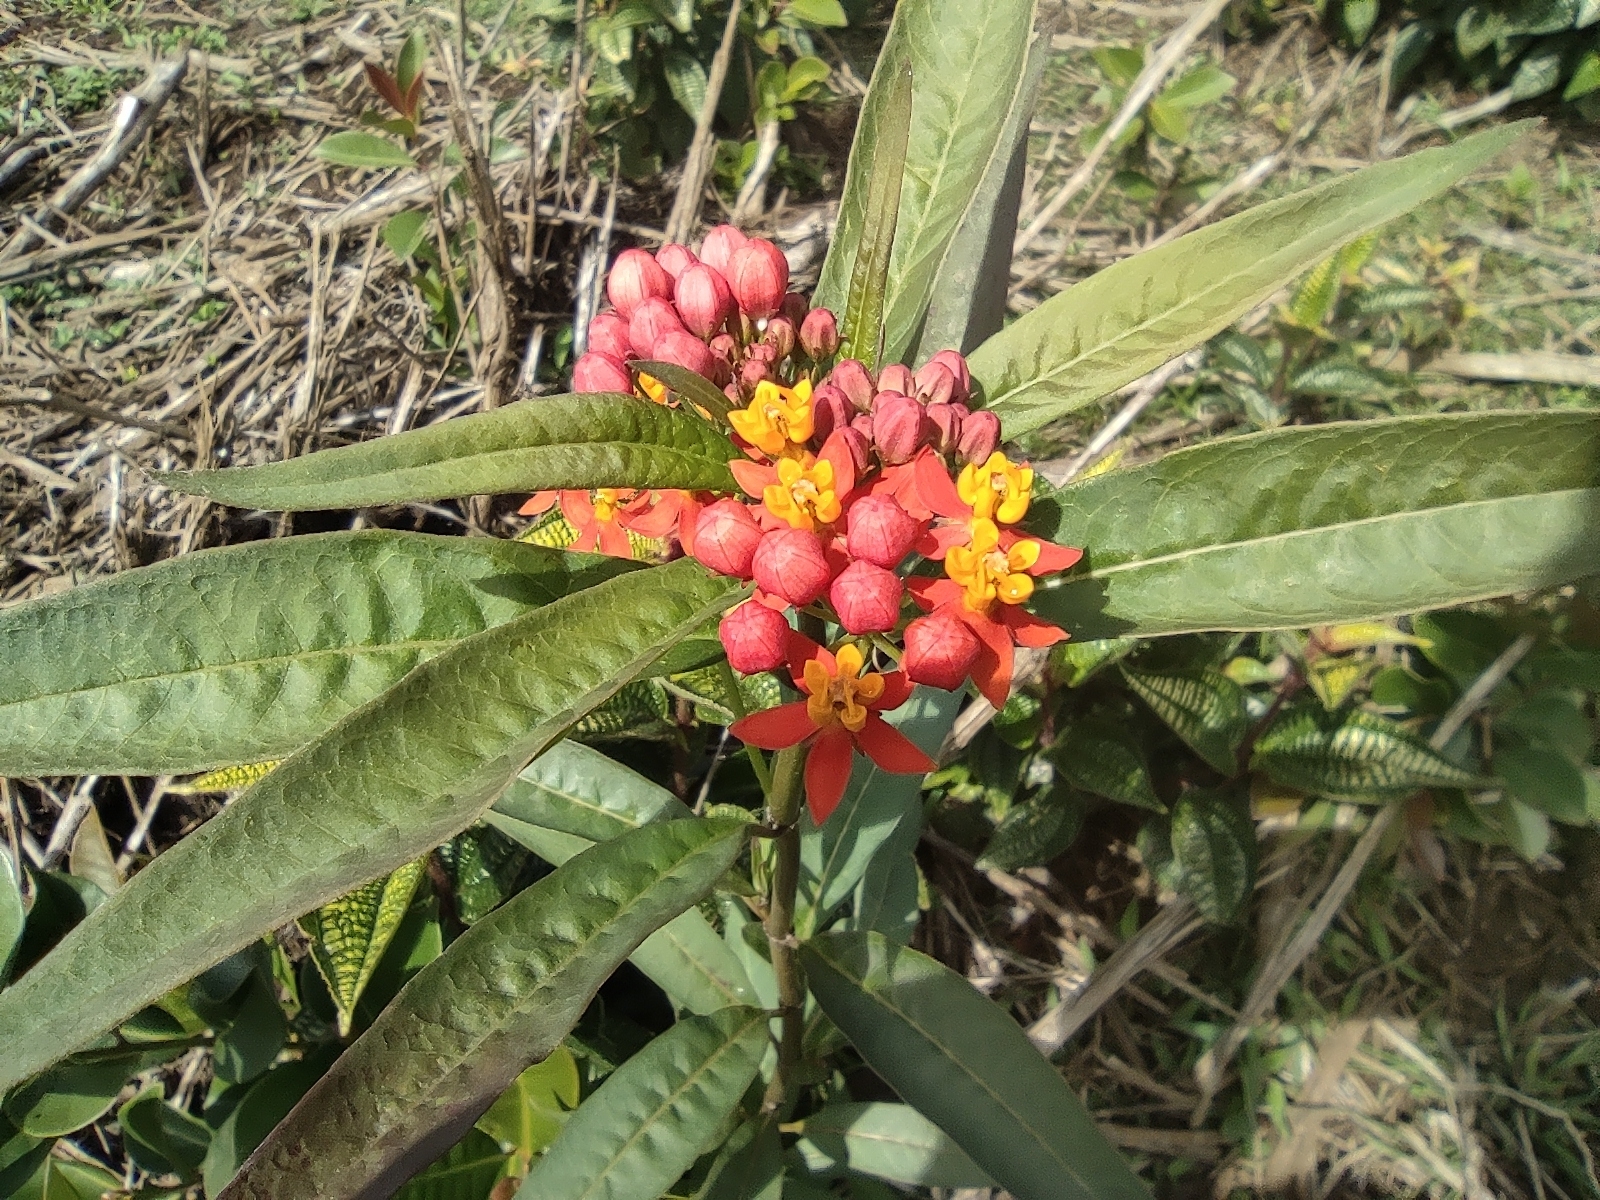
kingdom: Plantae
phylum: Tracheophyta
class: Magnoliopsida
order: Gentianales
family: Apocynaceae
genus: Asclepias
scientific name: Asclepias curassavica
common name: Bloodflower
